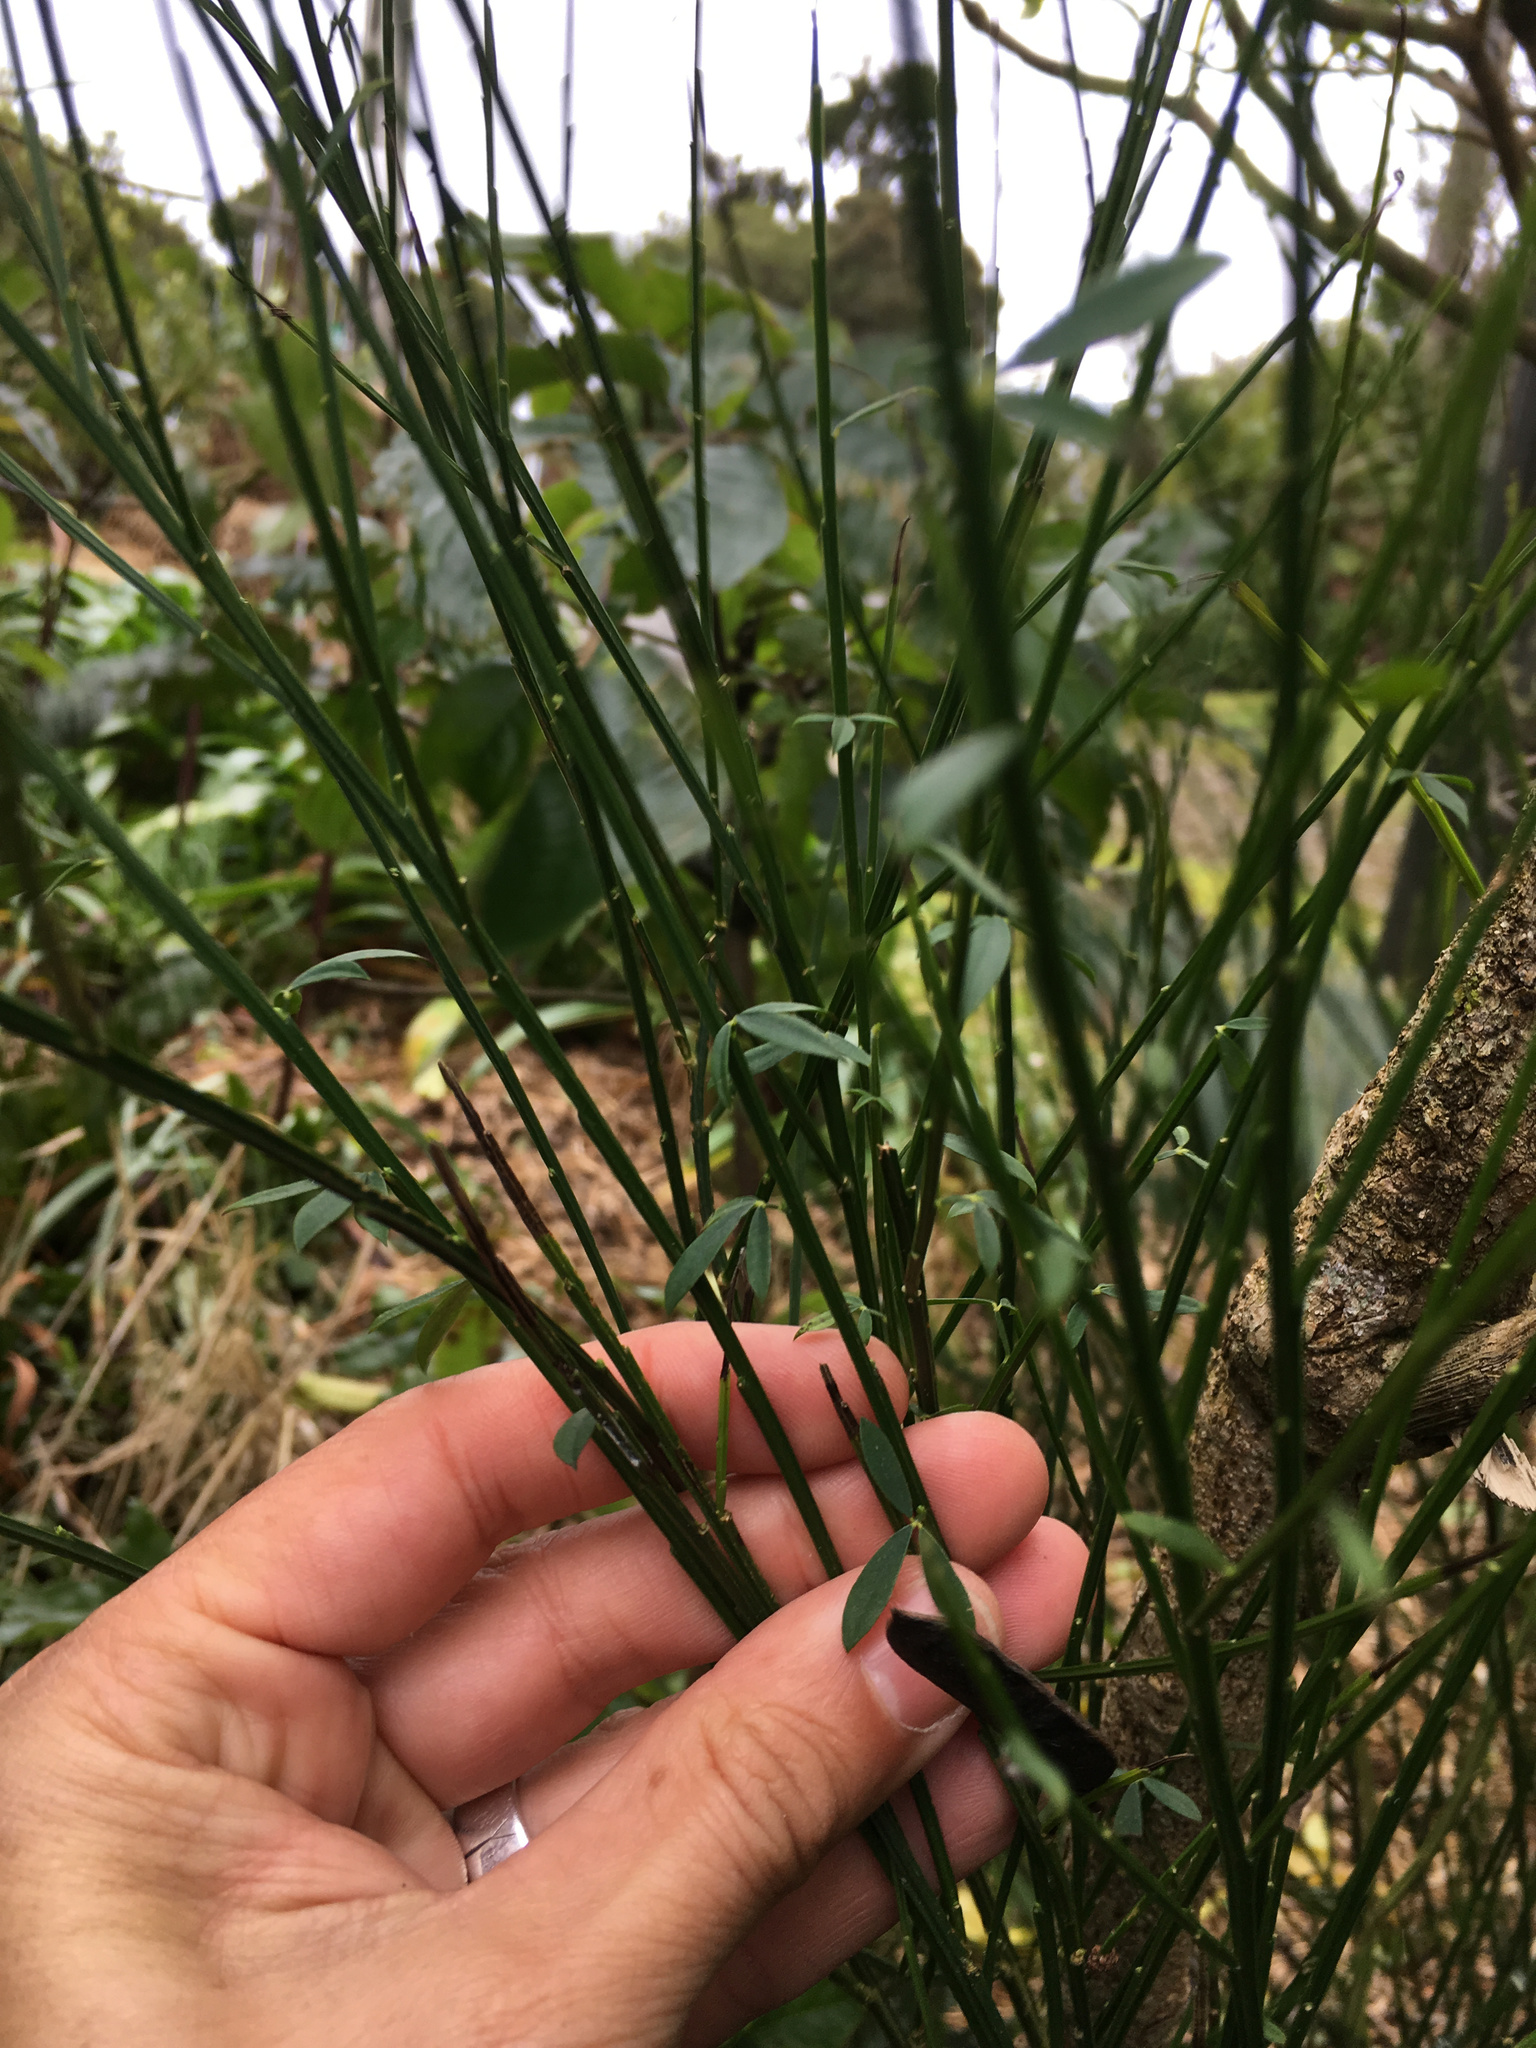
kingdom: Plantae
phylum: Tracheophyta
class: Magnoliopsida
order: Fabales
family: Fabaceae
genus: Cytisus
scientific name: Cytisus scoparius
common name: Scotch broom
